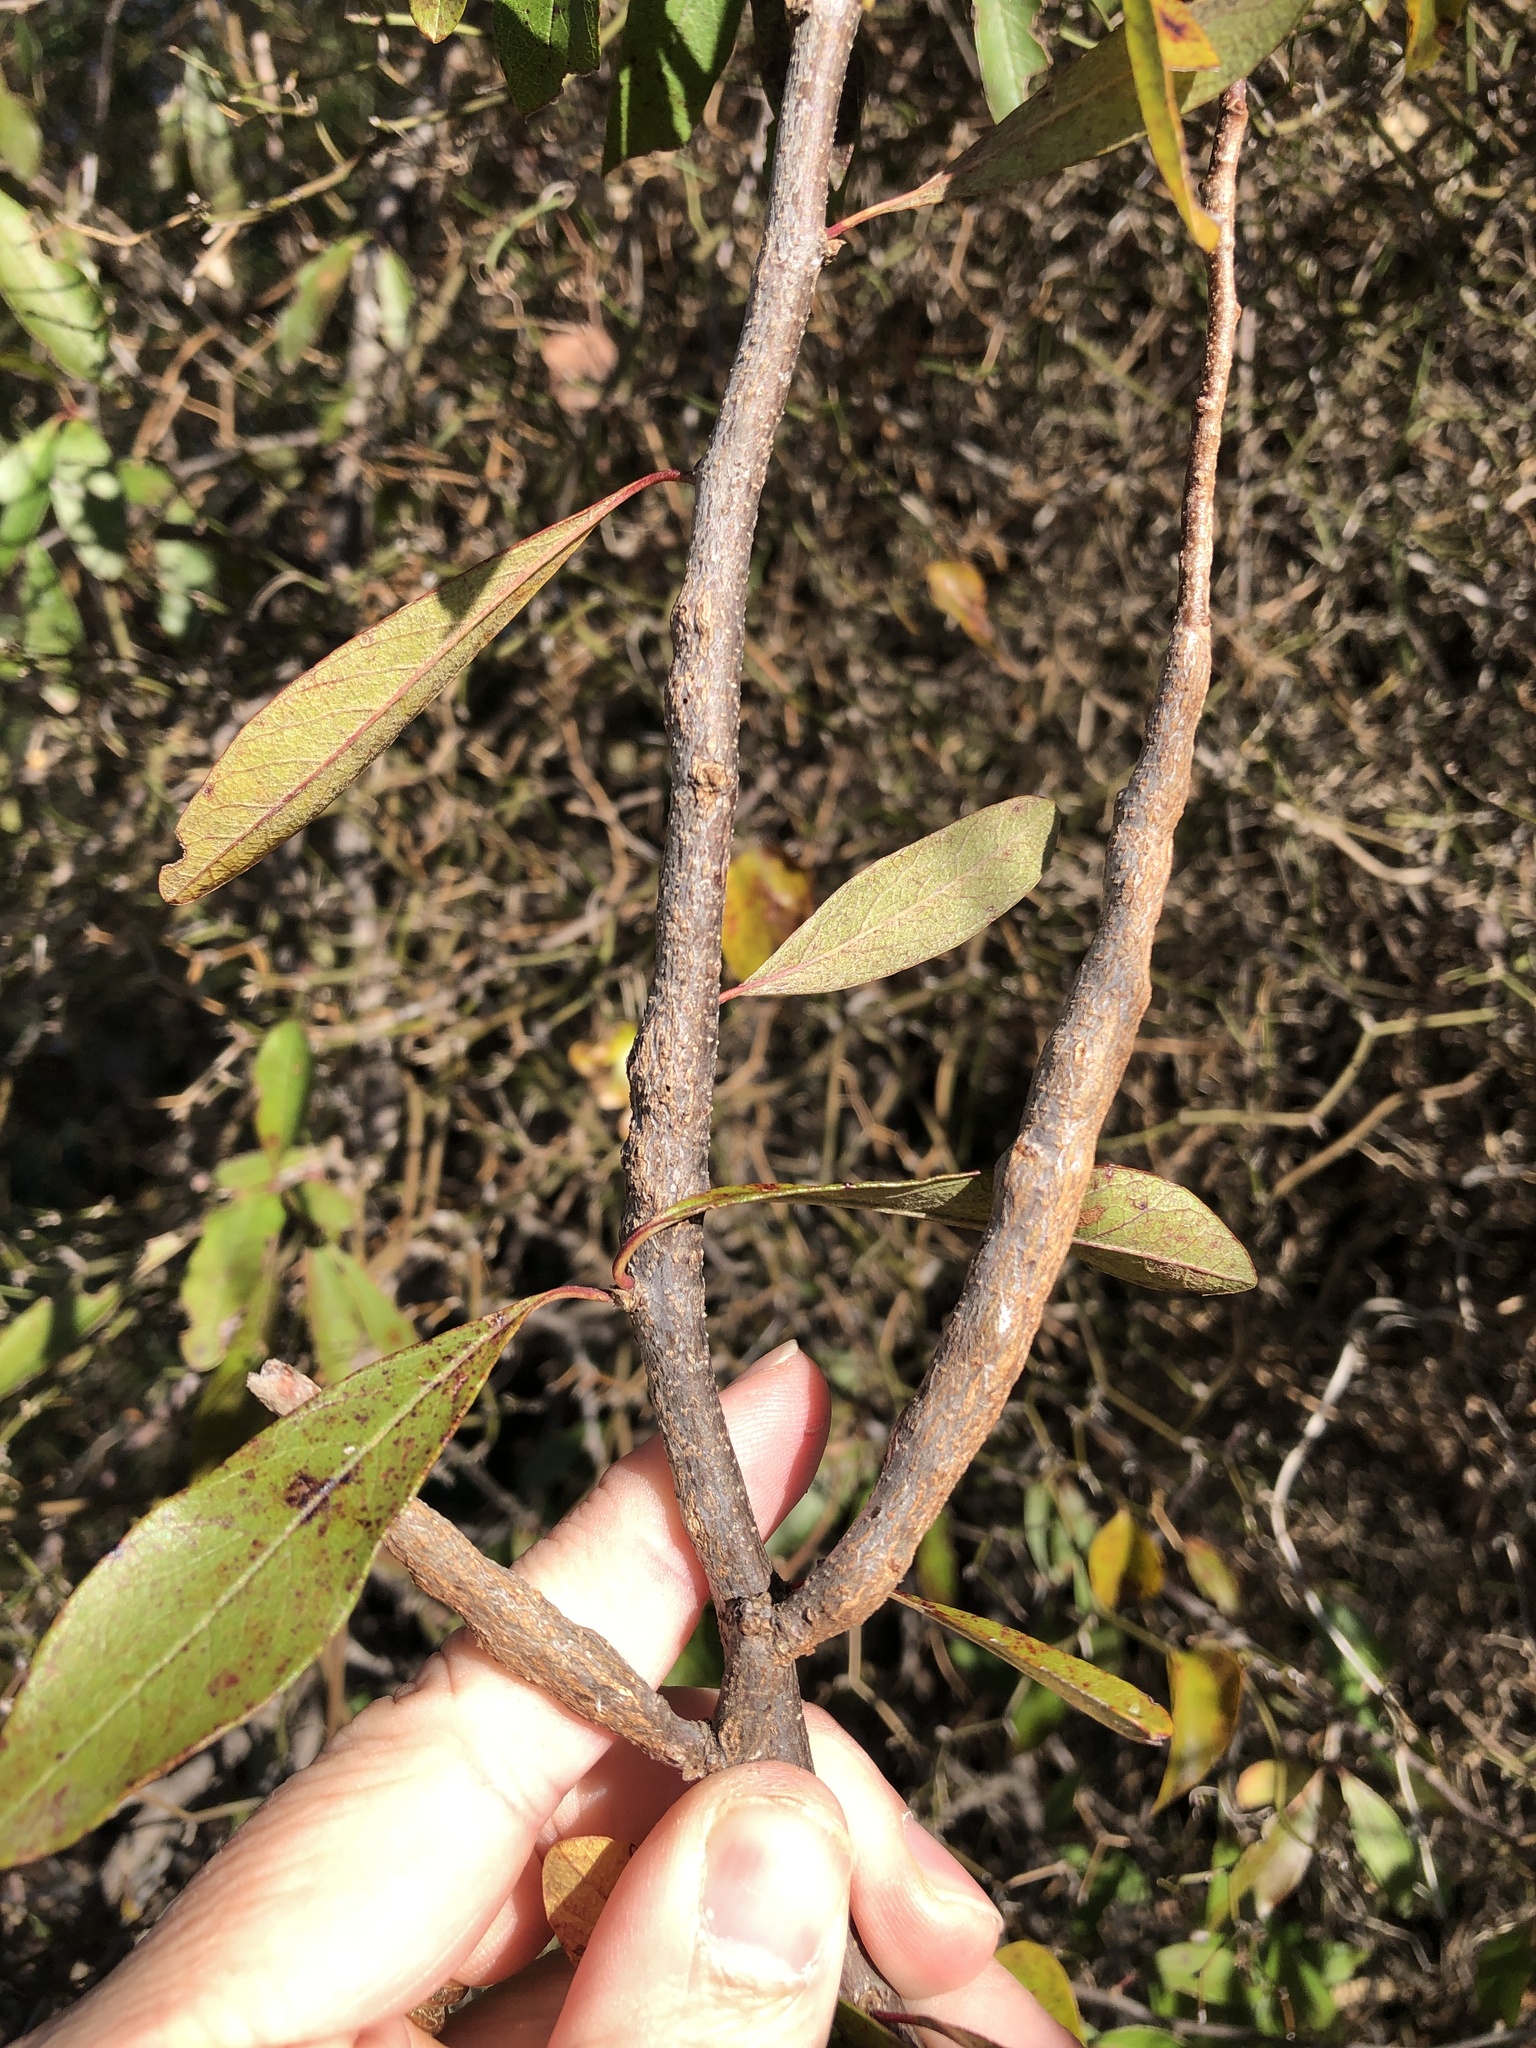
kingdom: Animalia
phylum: Arthropoda
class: Insecta
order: Diptera
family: Cecidomyiidae
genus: Bruggmanniella
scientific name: Bruggmanniella bumeliae
